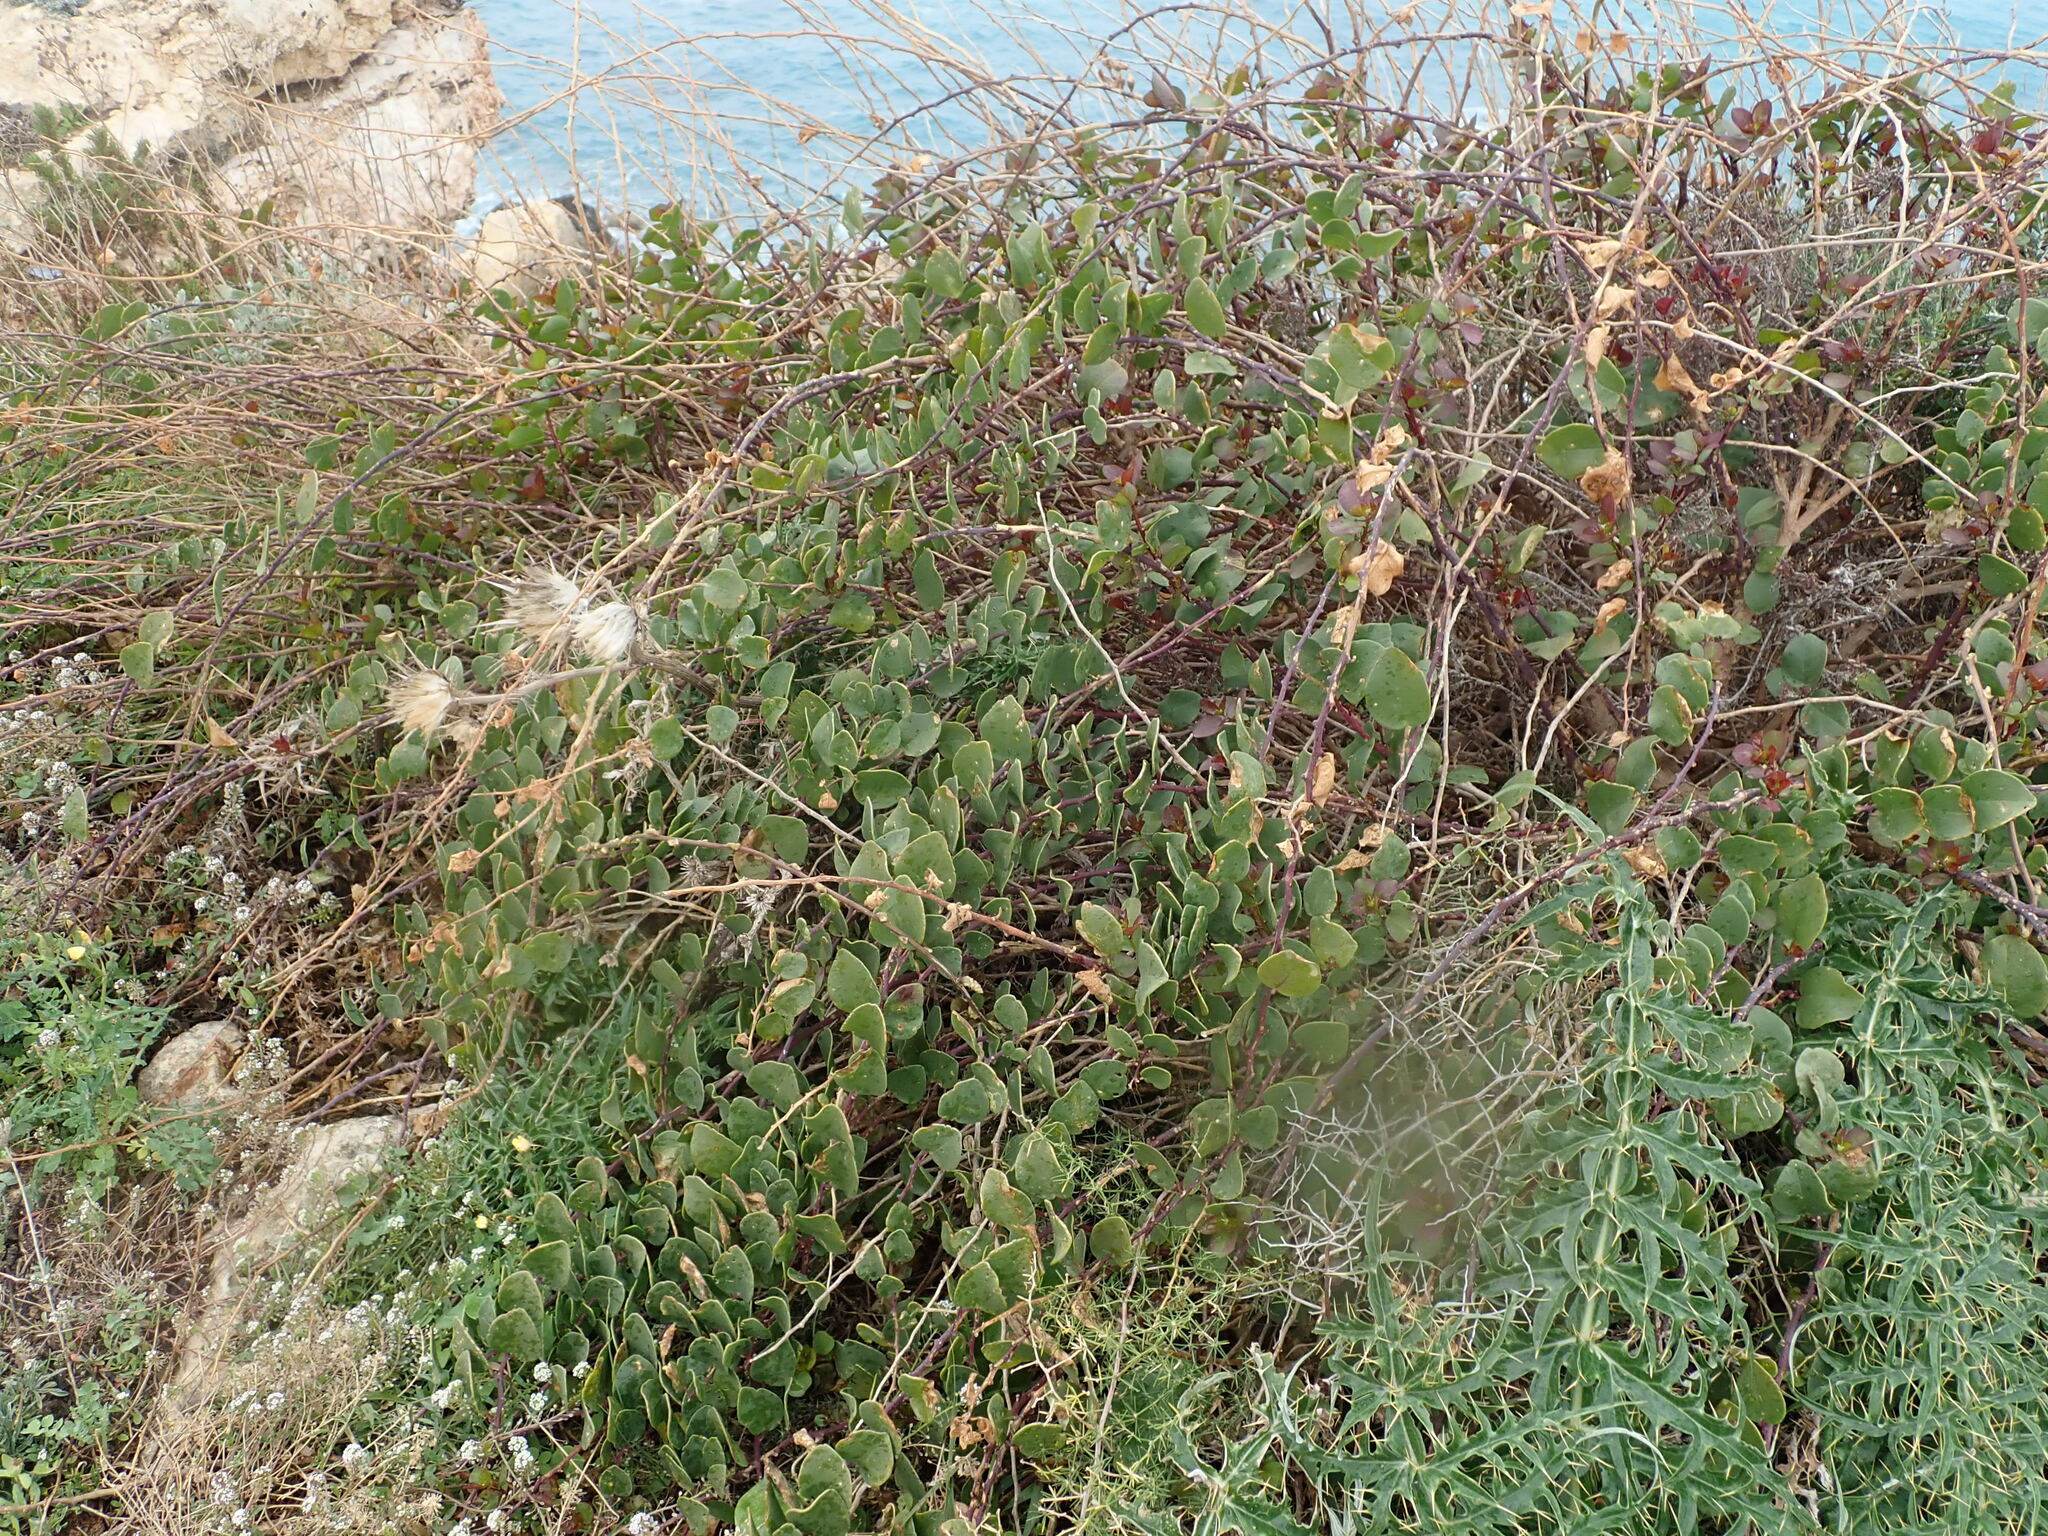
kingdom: Plantae
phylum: Tracheophyta
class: Magnoliopsida
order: Brassicales
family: Capparaceae
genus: Capparis
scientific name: Capparis orientalis
